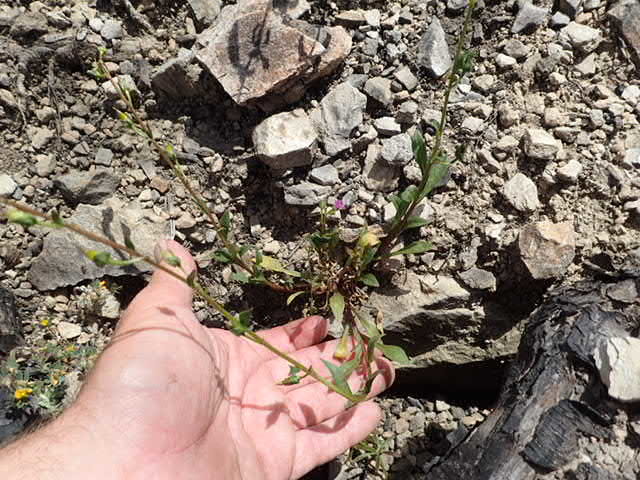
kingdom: Plantae
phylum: Tracheophyta
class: Magnoliopsida
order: Caryophyllales
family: Montiaceae
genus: Calandrinia
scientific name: Calandrinia breweri
